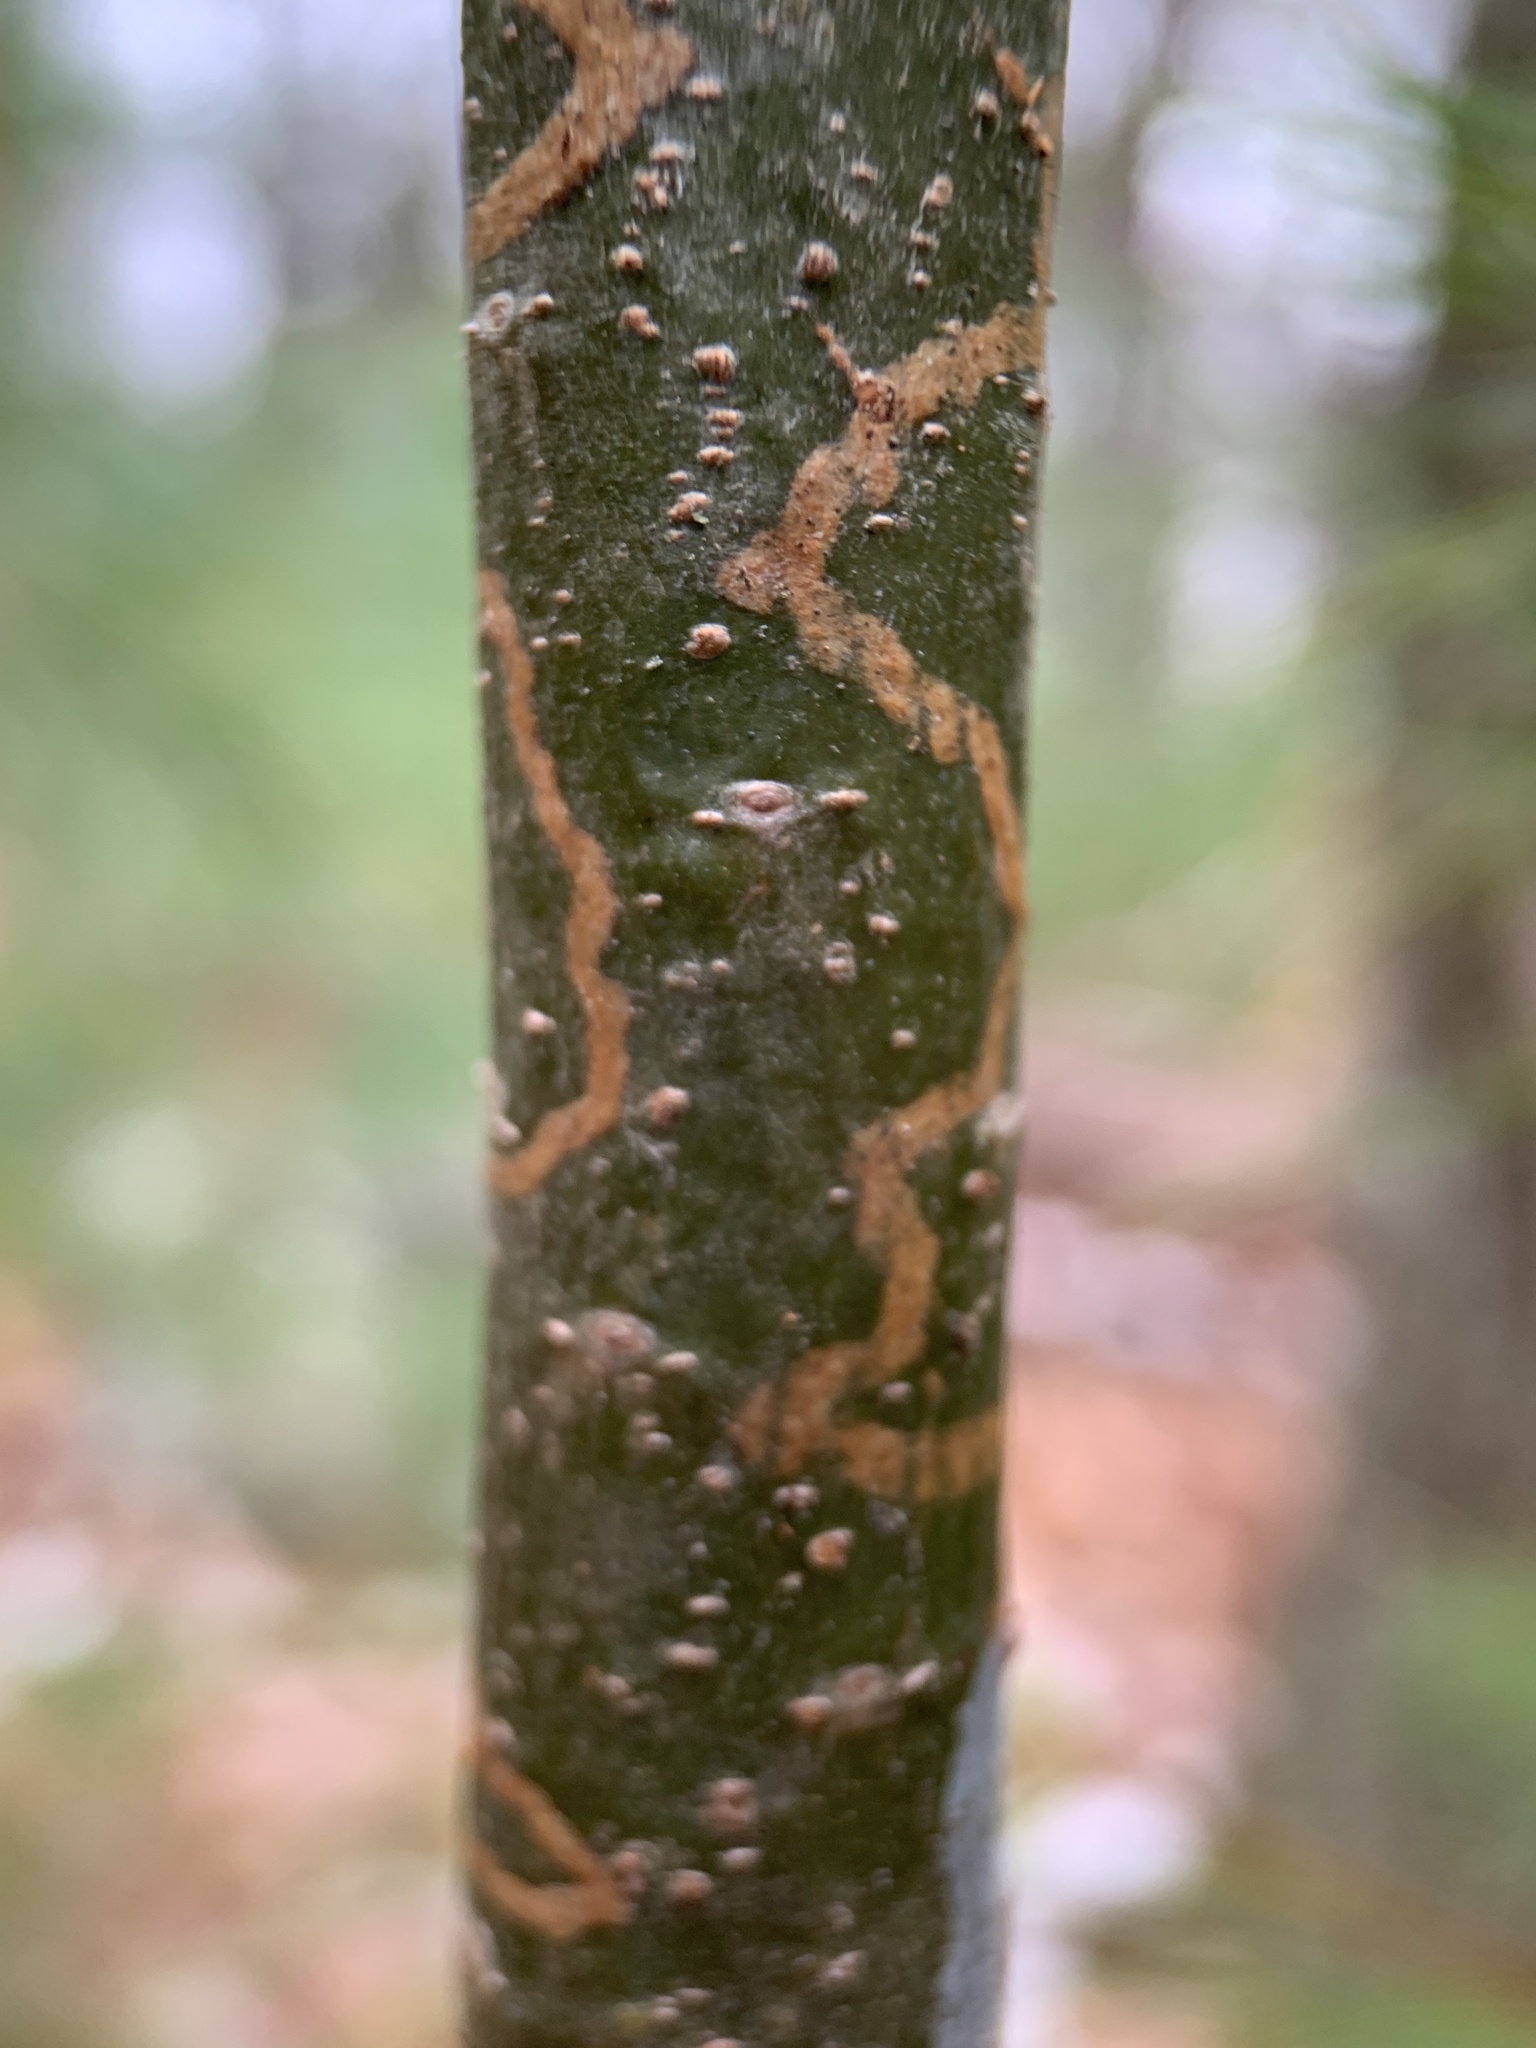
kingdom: Animalia
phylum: Arthropoda
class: Insecta
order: Lepidoptera
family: Gracillariidae
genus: Marmara
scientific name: Marmara fasciella
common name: White pine barkminer moth
